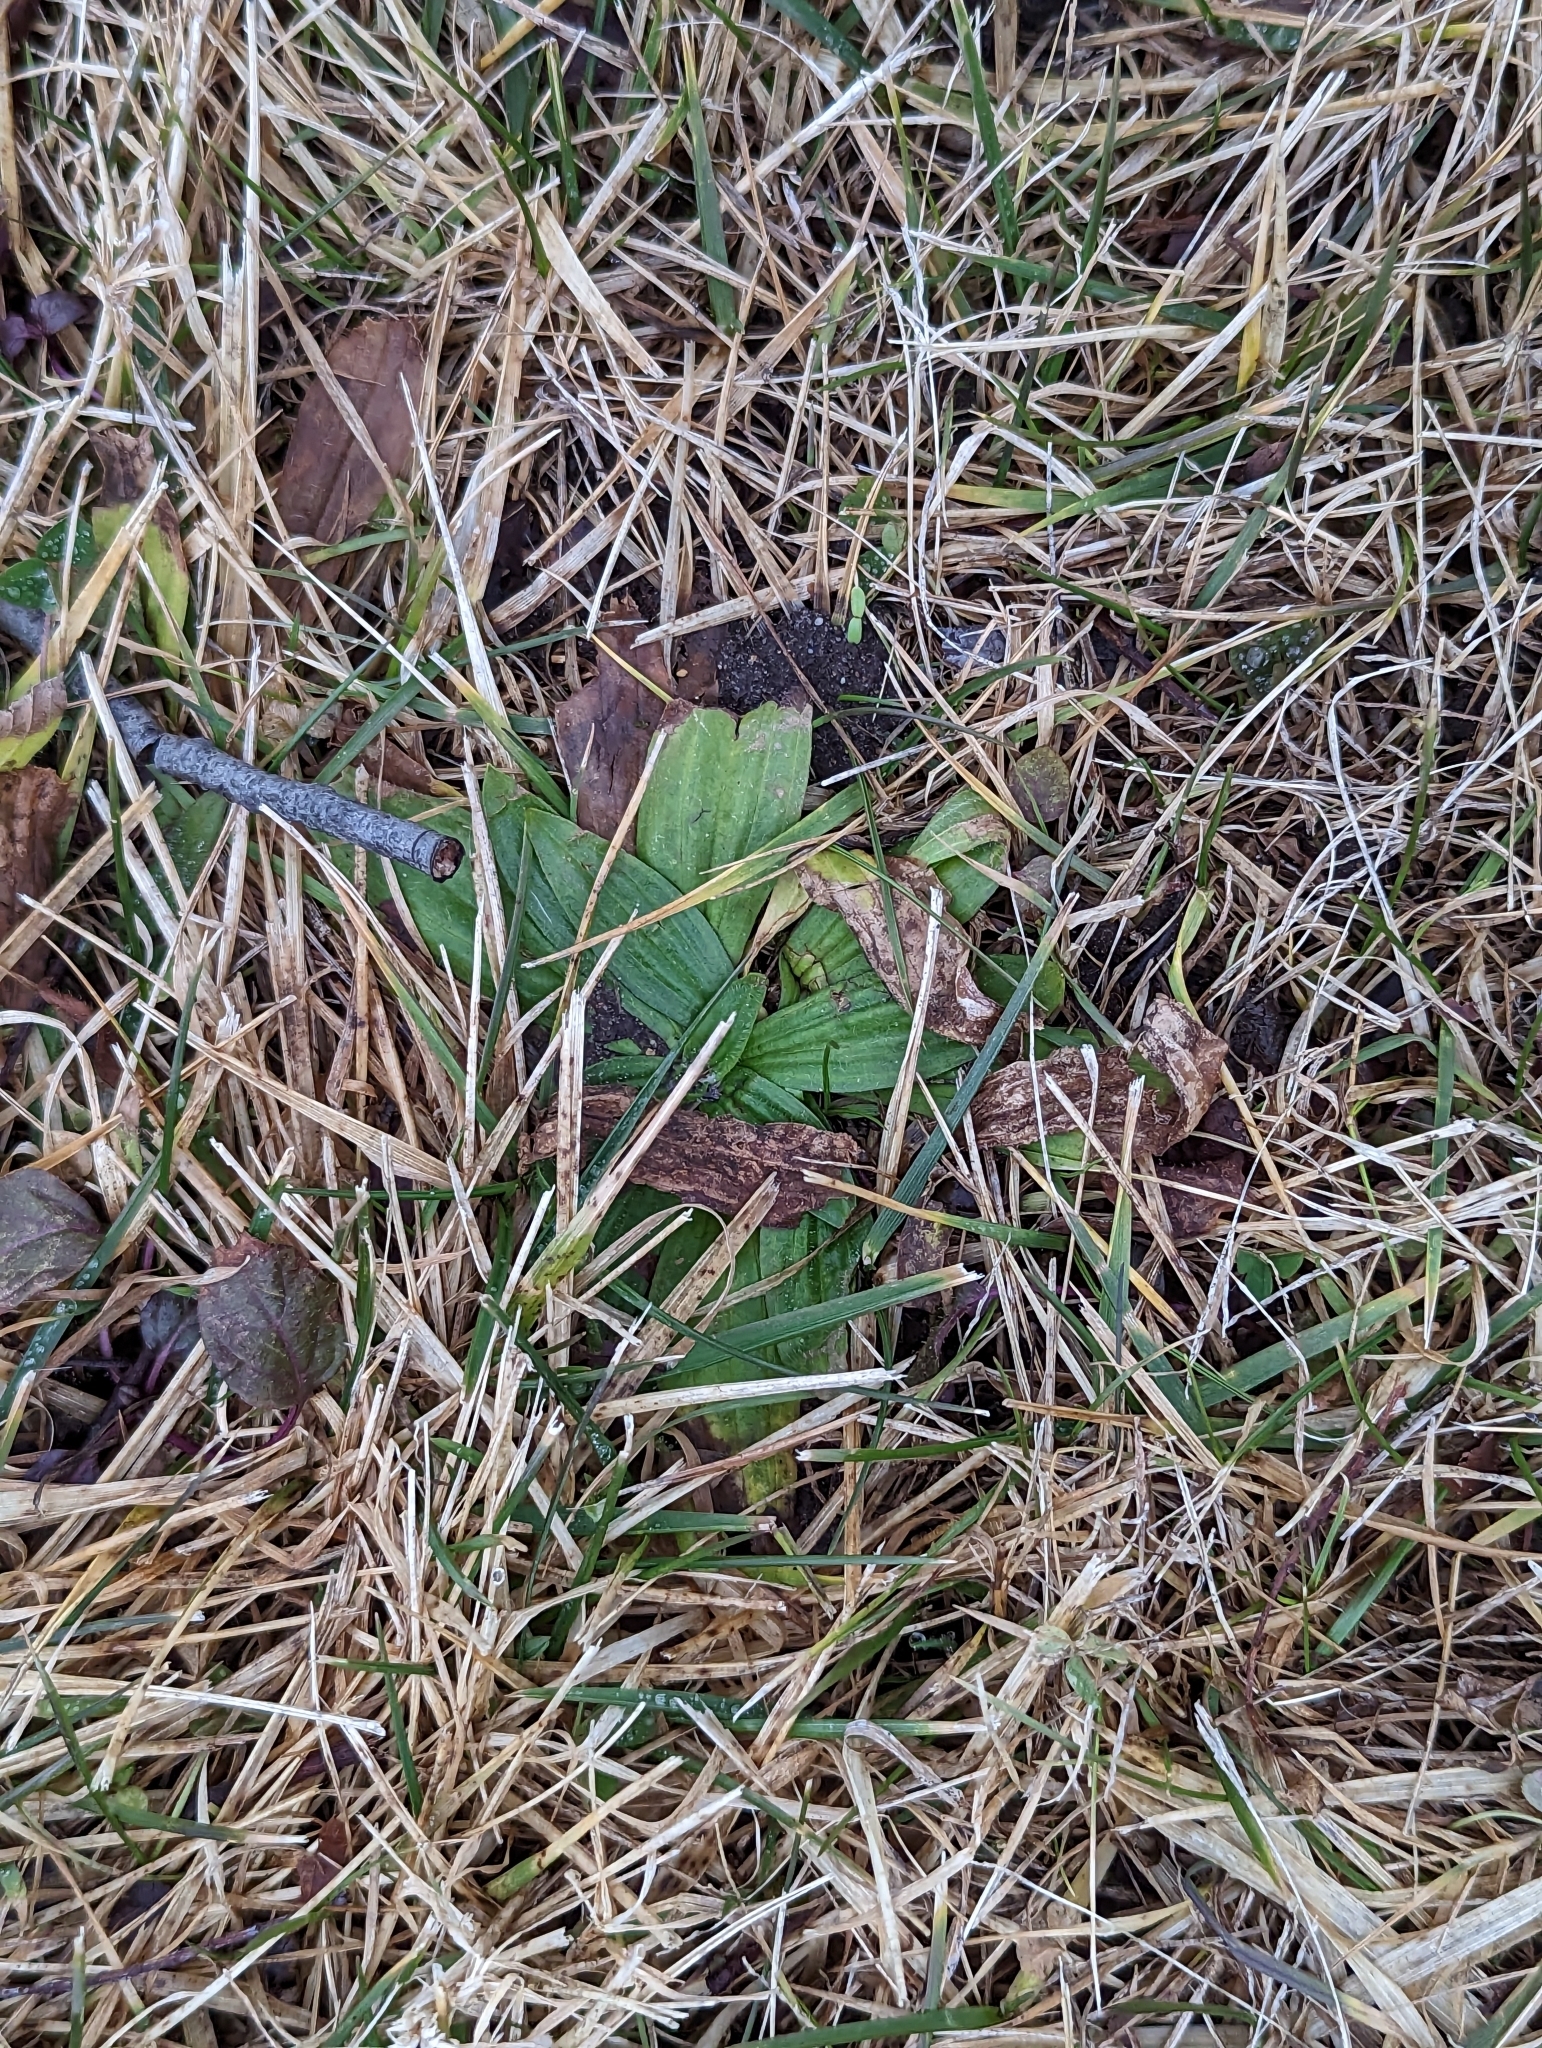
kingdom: Plantae
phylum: Tracheophyta
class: Magnoliopsida
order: Lamiales
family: Plantaginaceae
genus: Plantago
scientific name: Plantago lanceolata
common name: Ribwort plantain
